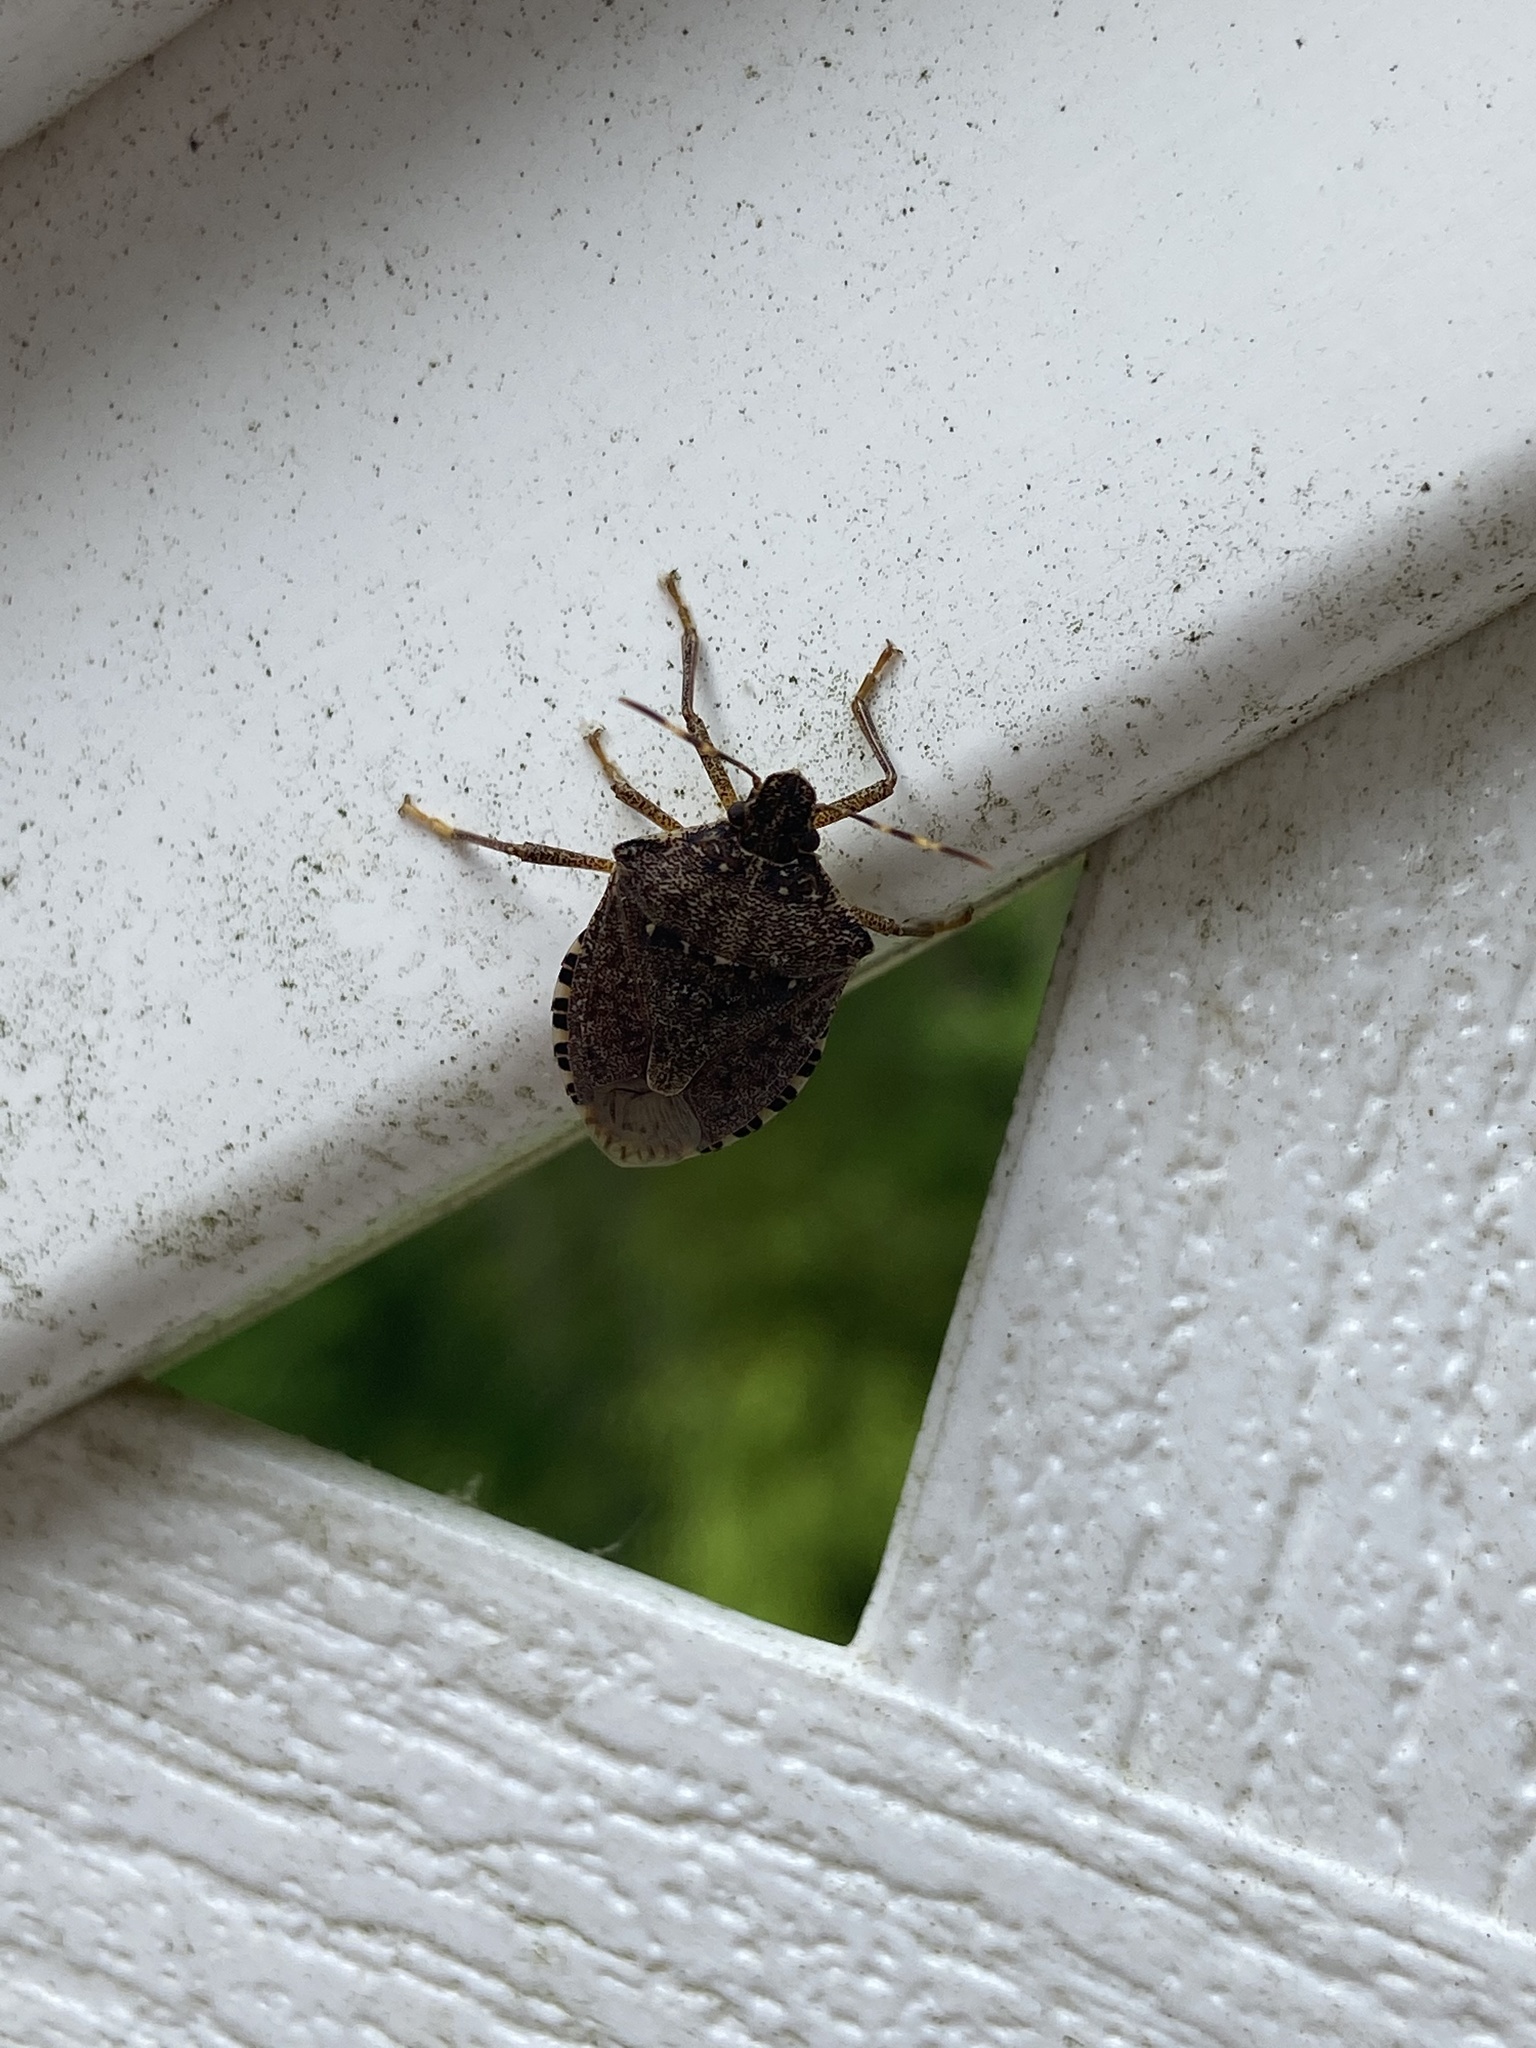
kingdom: Animalia
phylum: Arthropoda
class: Insecta
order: Hemiptera
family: Pentatomidae
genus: Halyomorpha
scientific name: Halyomorpha halys
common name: Brown marmorated stink bug
